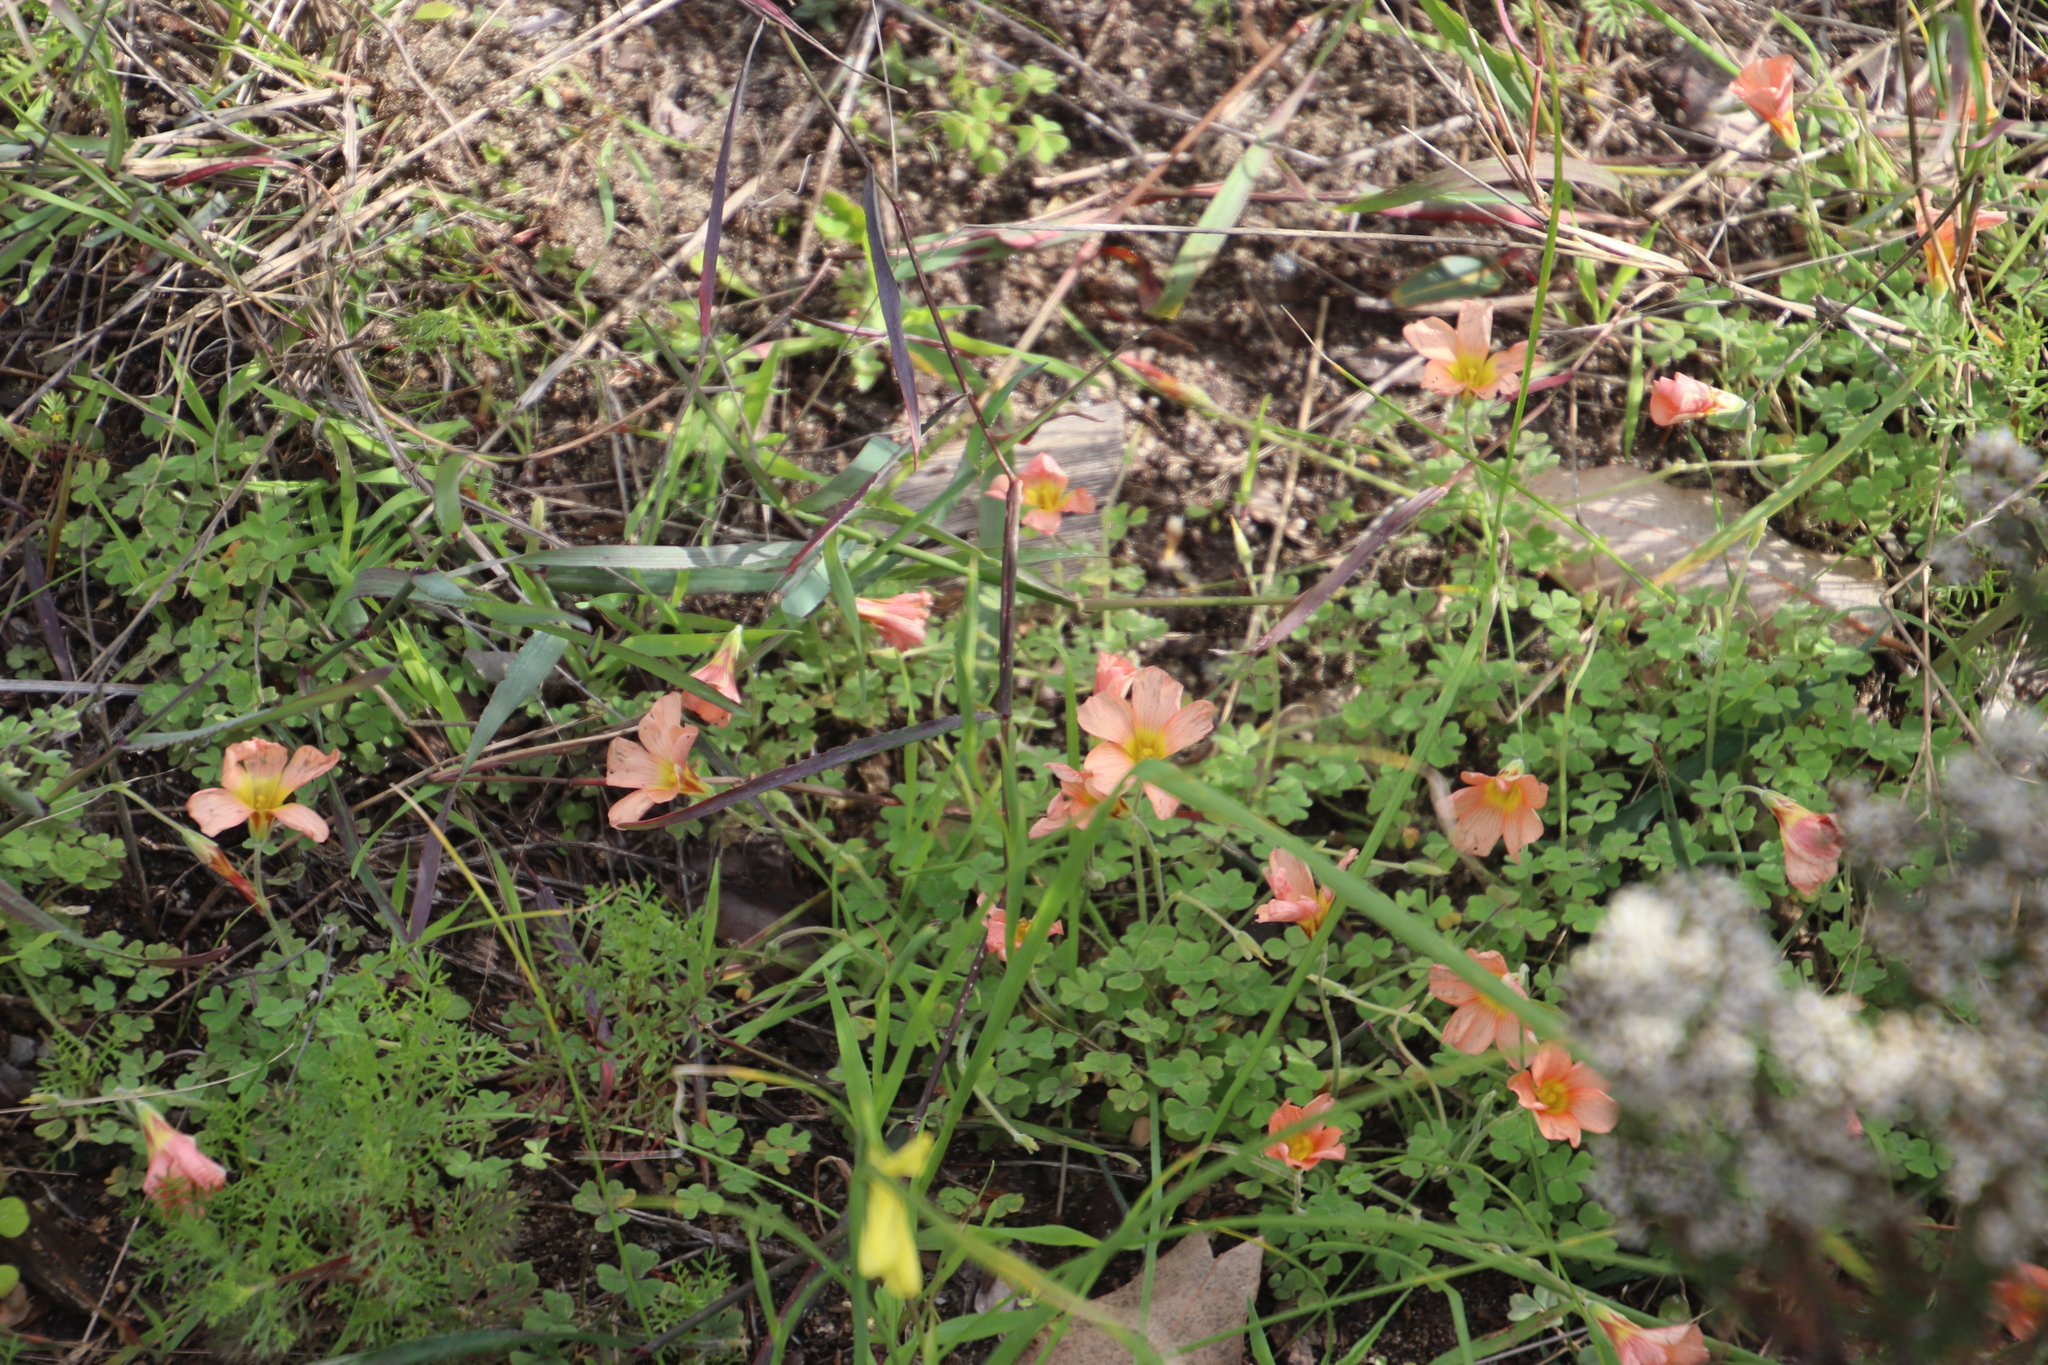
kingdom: Plantae
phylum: Tracheophyta
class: Magnoliopsida
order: Oxalidales
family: Oxalidaceae
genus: Oxalis
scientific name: Oxalis obtusa
